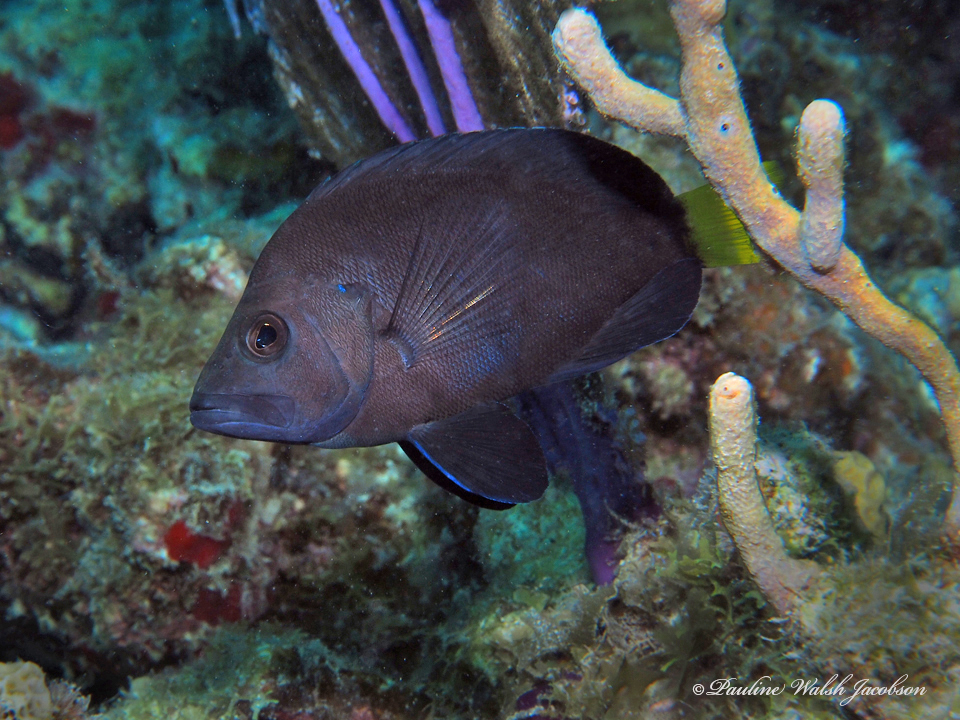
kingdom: Animalia
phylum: Chordata
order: Perciformes
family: Serranidae
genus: Hypoplectrus
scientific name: Hypoplectrus chlorurus
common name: Yellowtail hamlet
